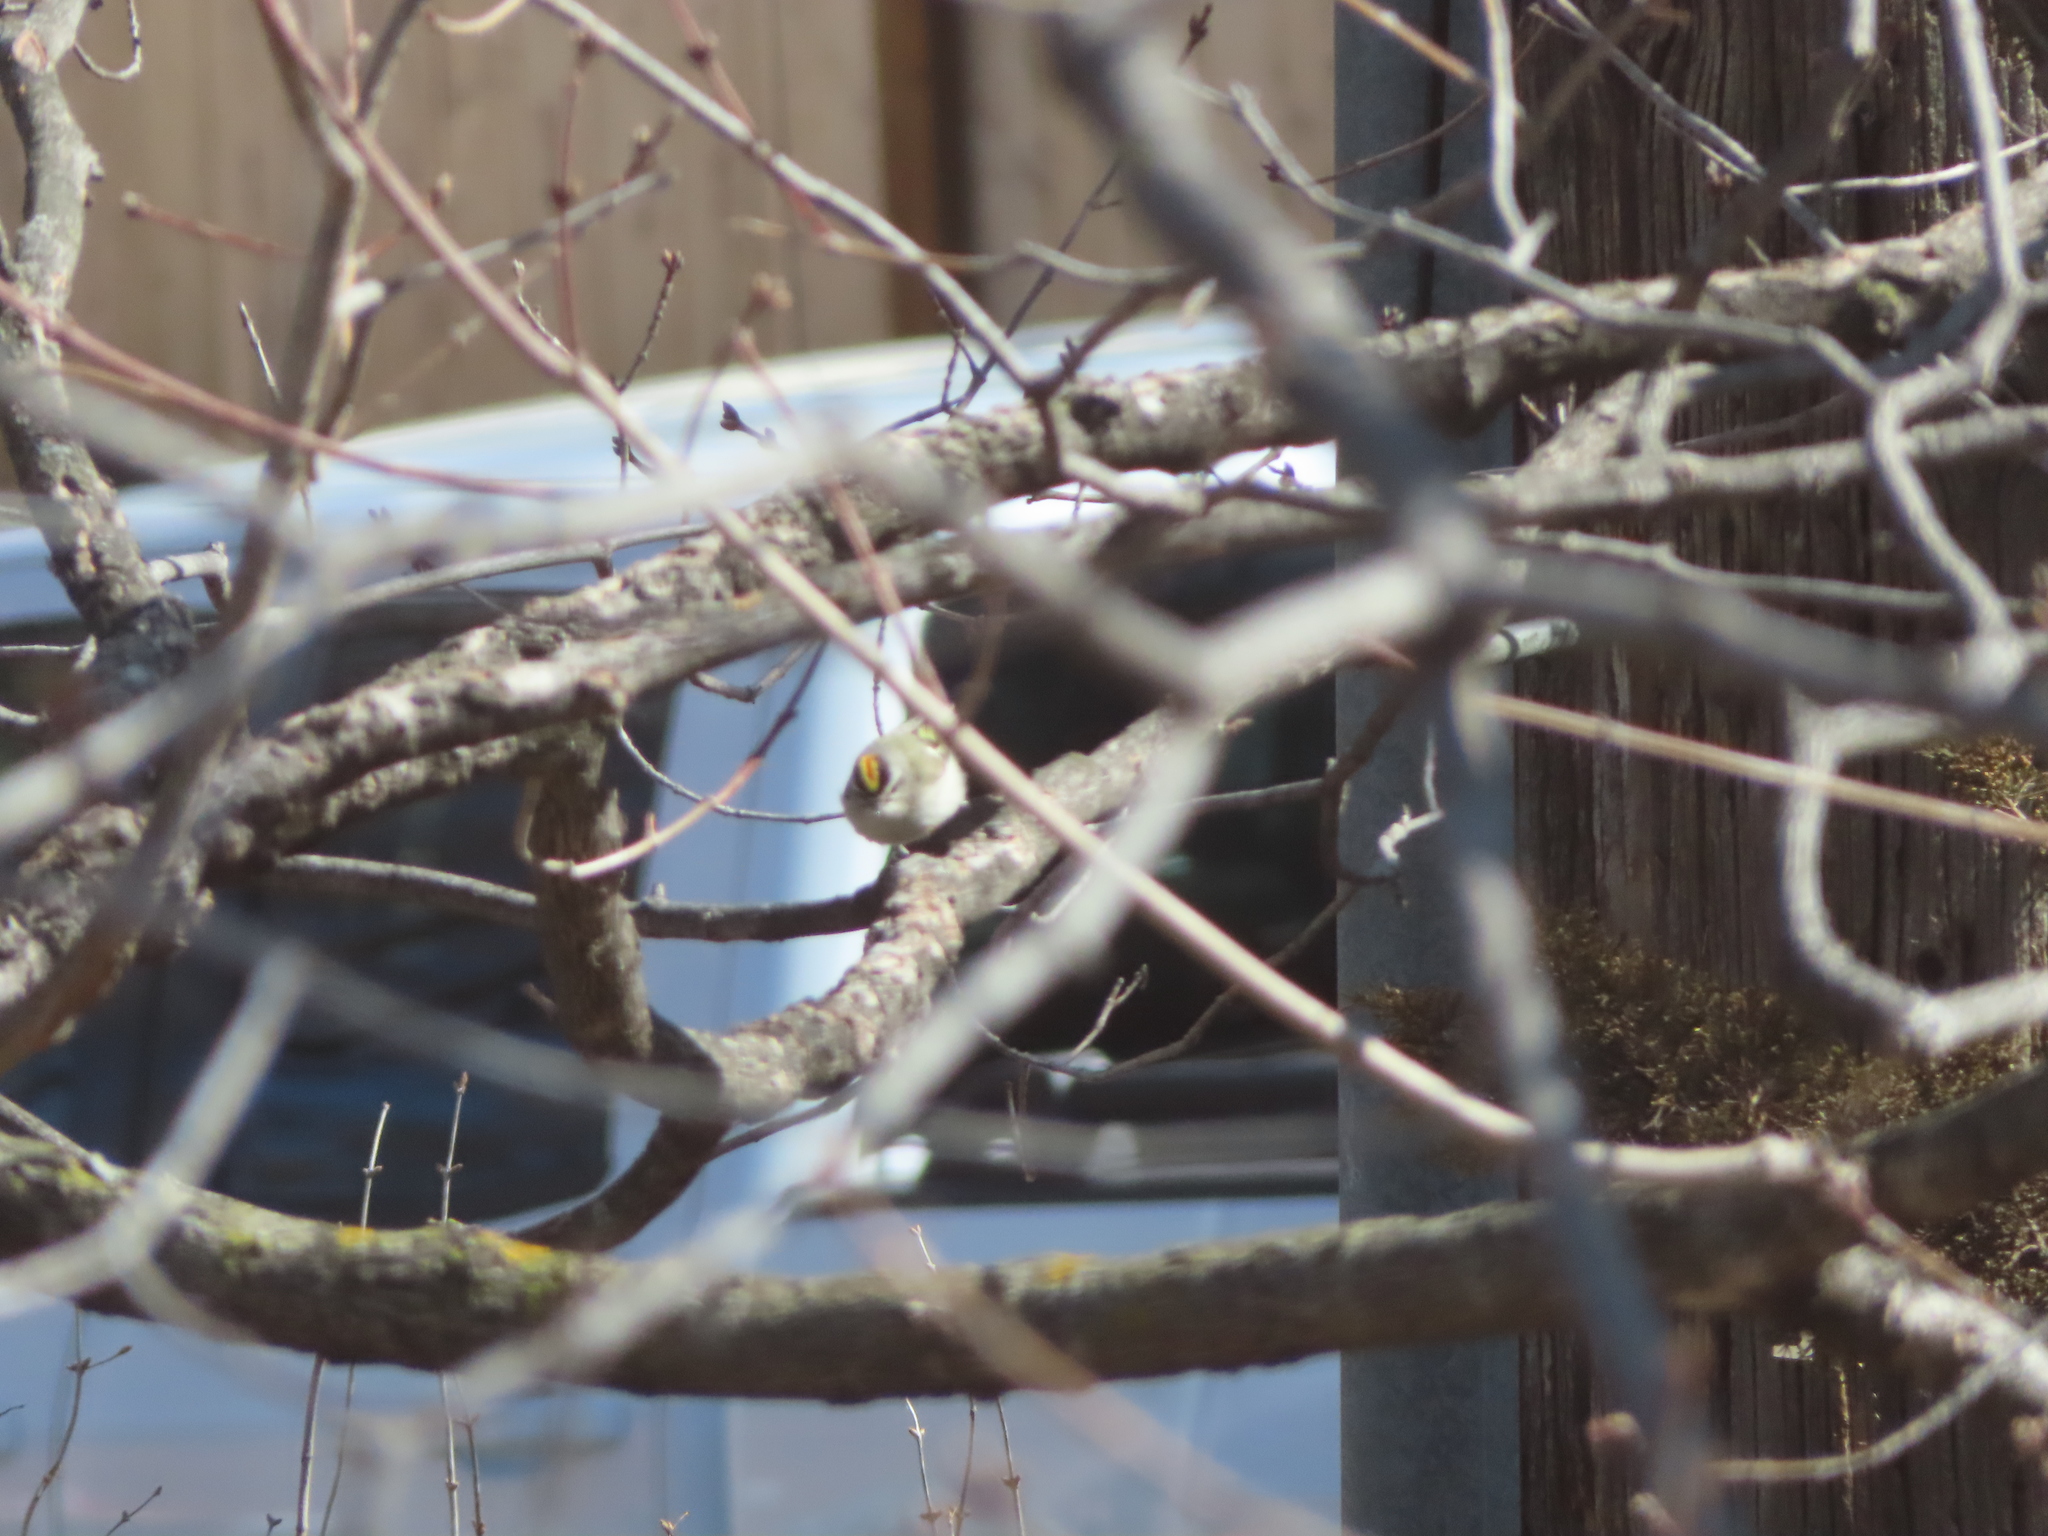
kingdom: Animalia
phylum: Chordata
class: Aves
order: Passeriformes
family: Regulidae
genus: Regulus
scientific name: Regulus satrapa
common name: Golden-crowned kinglet
